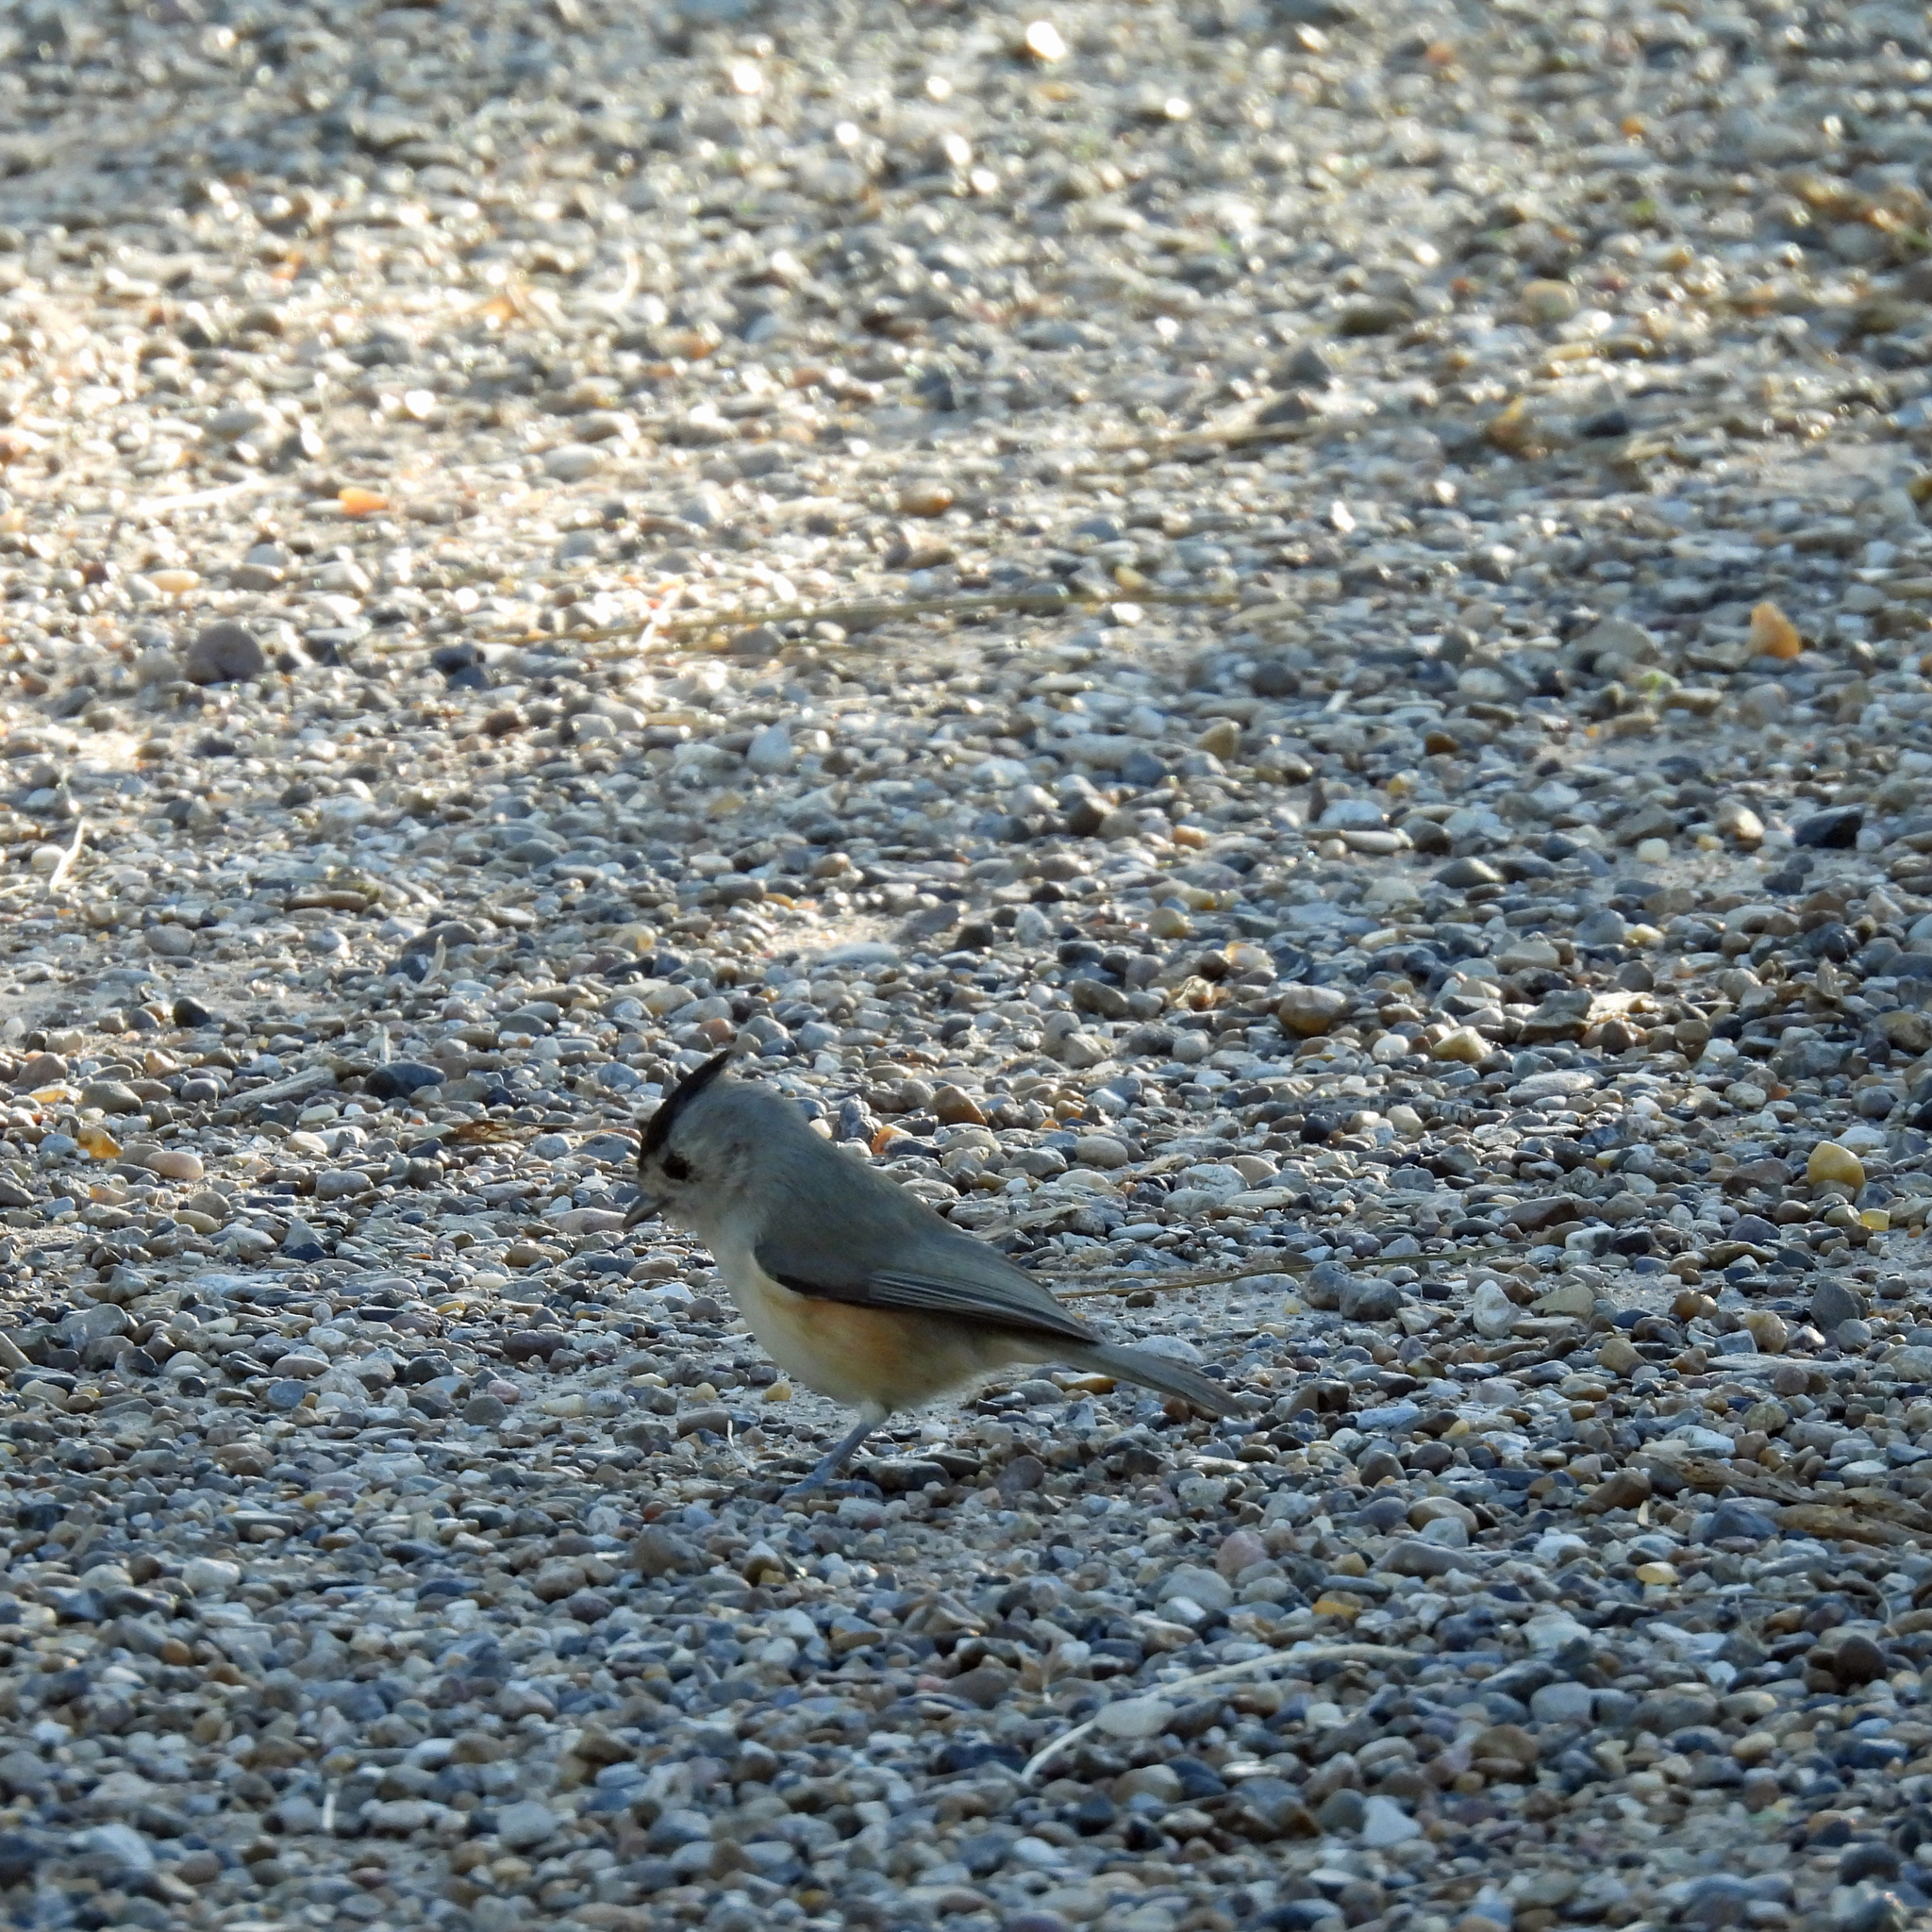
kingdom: Animalia
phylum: Chordata
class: Aves
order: Passeriformes
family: Paridae
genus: Baeolophus
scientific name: Baeolophus atricristatus
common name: Black-crested titmouse
